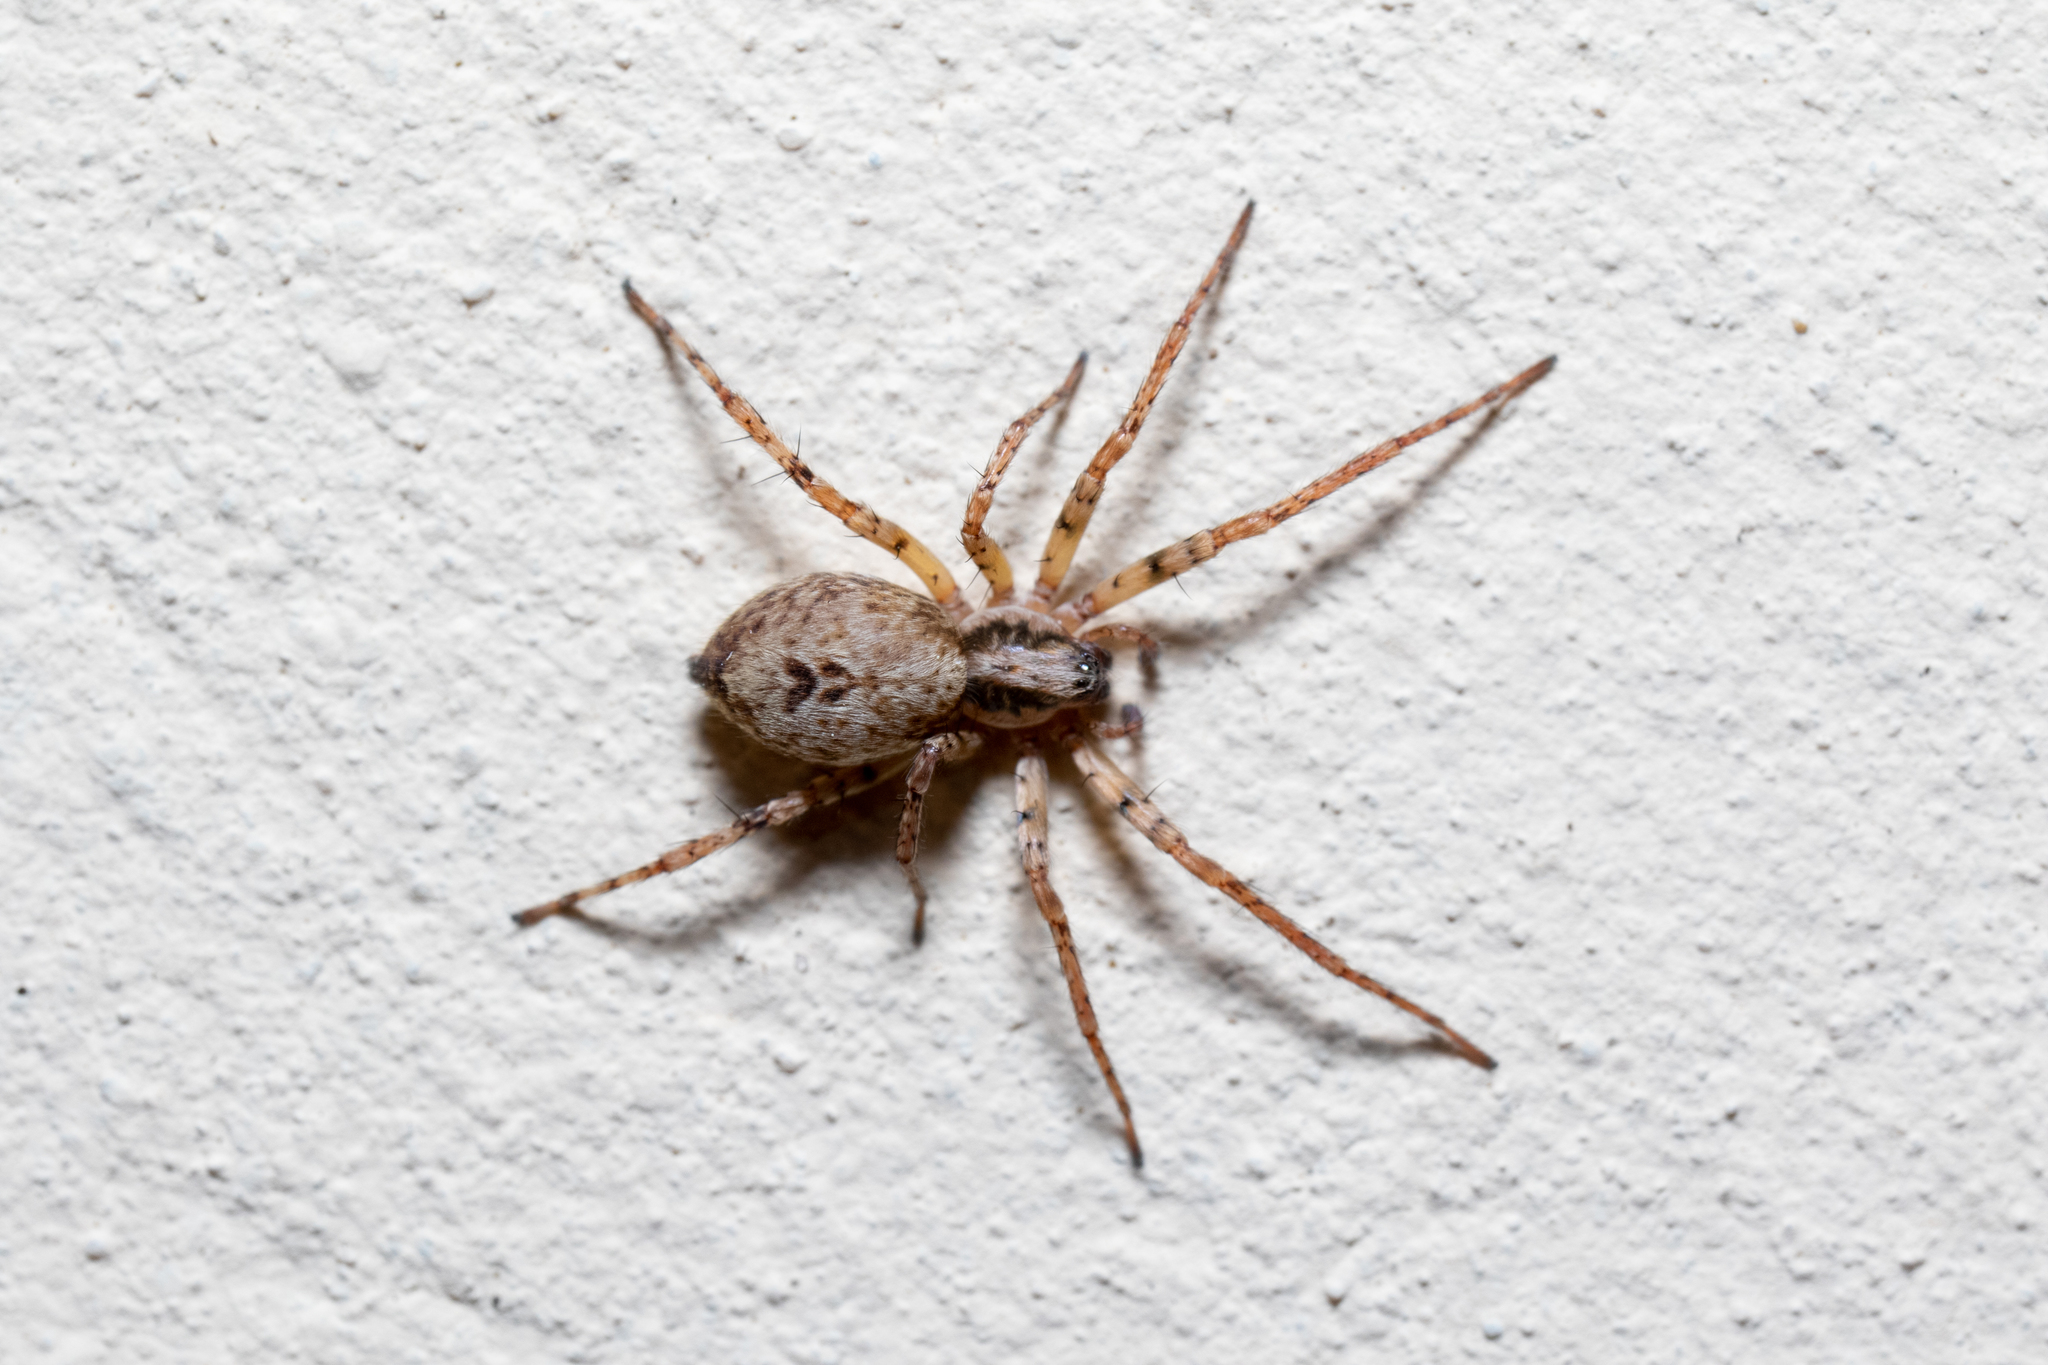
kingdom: Animalia
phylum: Arthropoda
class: Arachnida
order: Araneae
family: Anyphaenidae
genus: Anyphaena
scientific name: Anyphaena accentuata
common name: Buzzing spider
